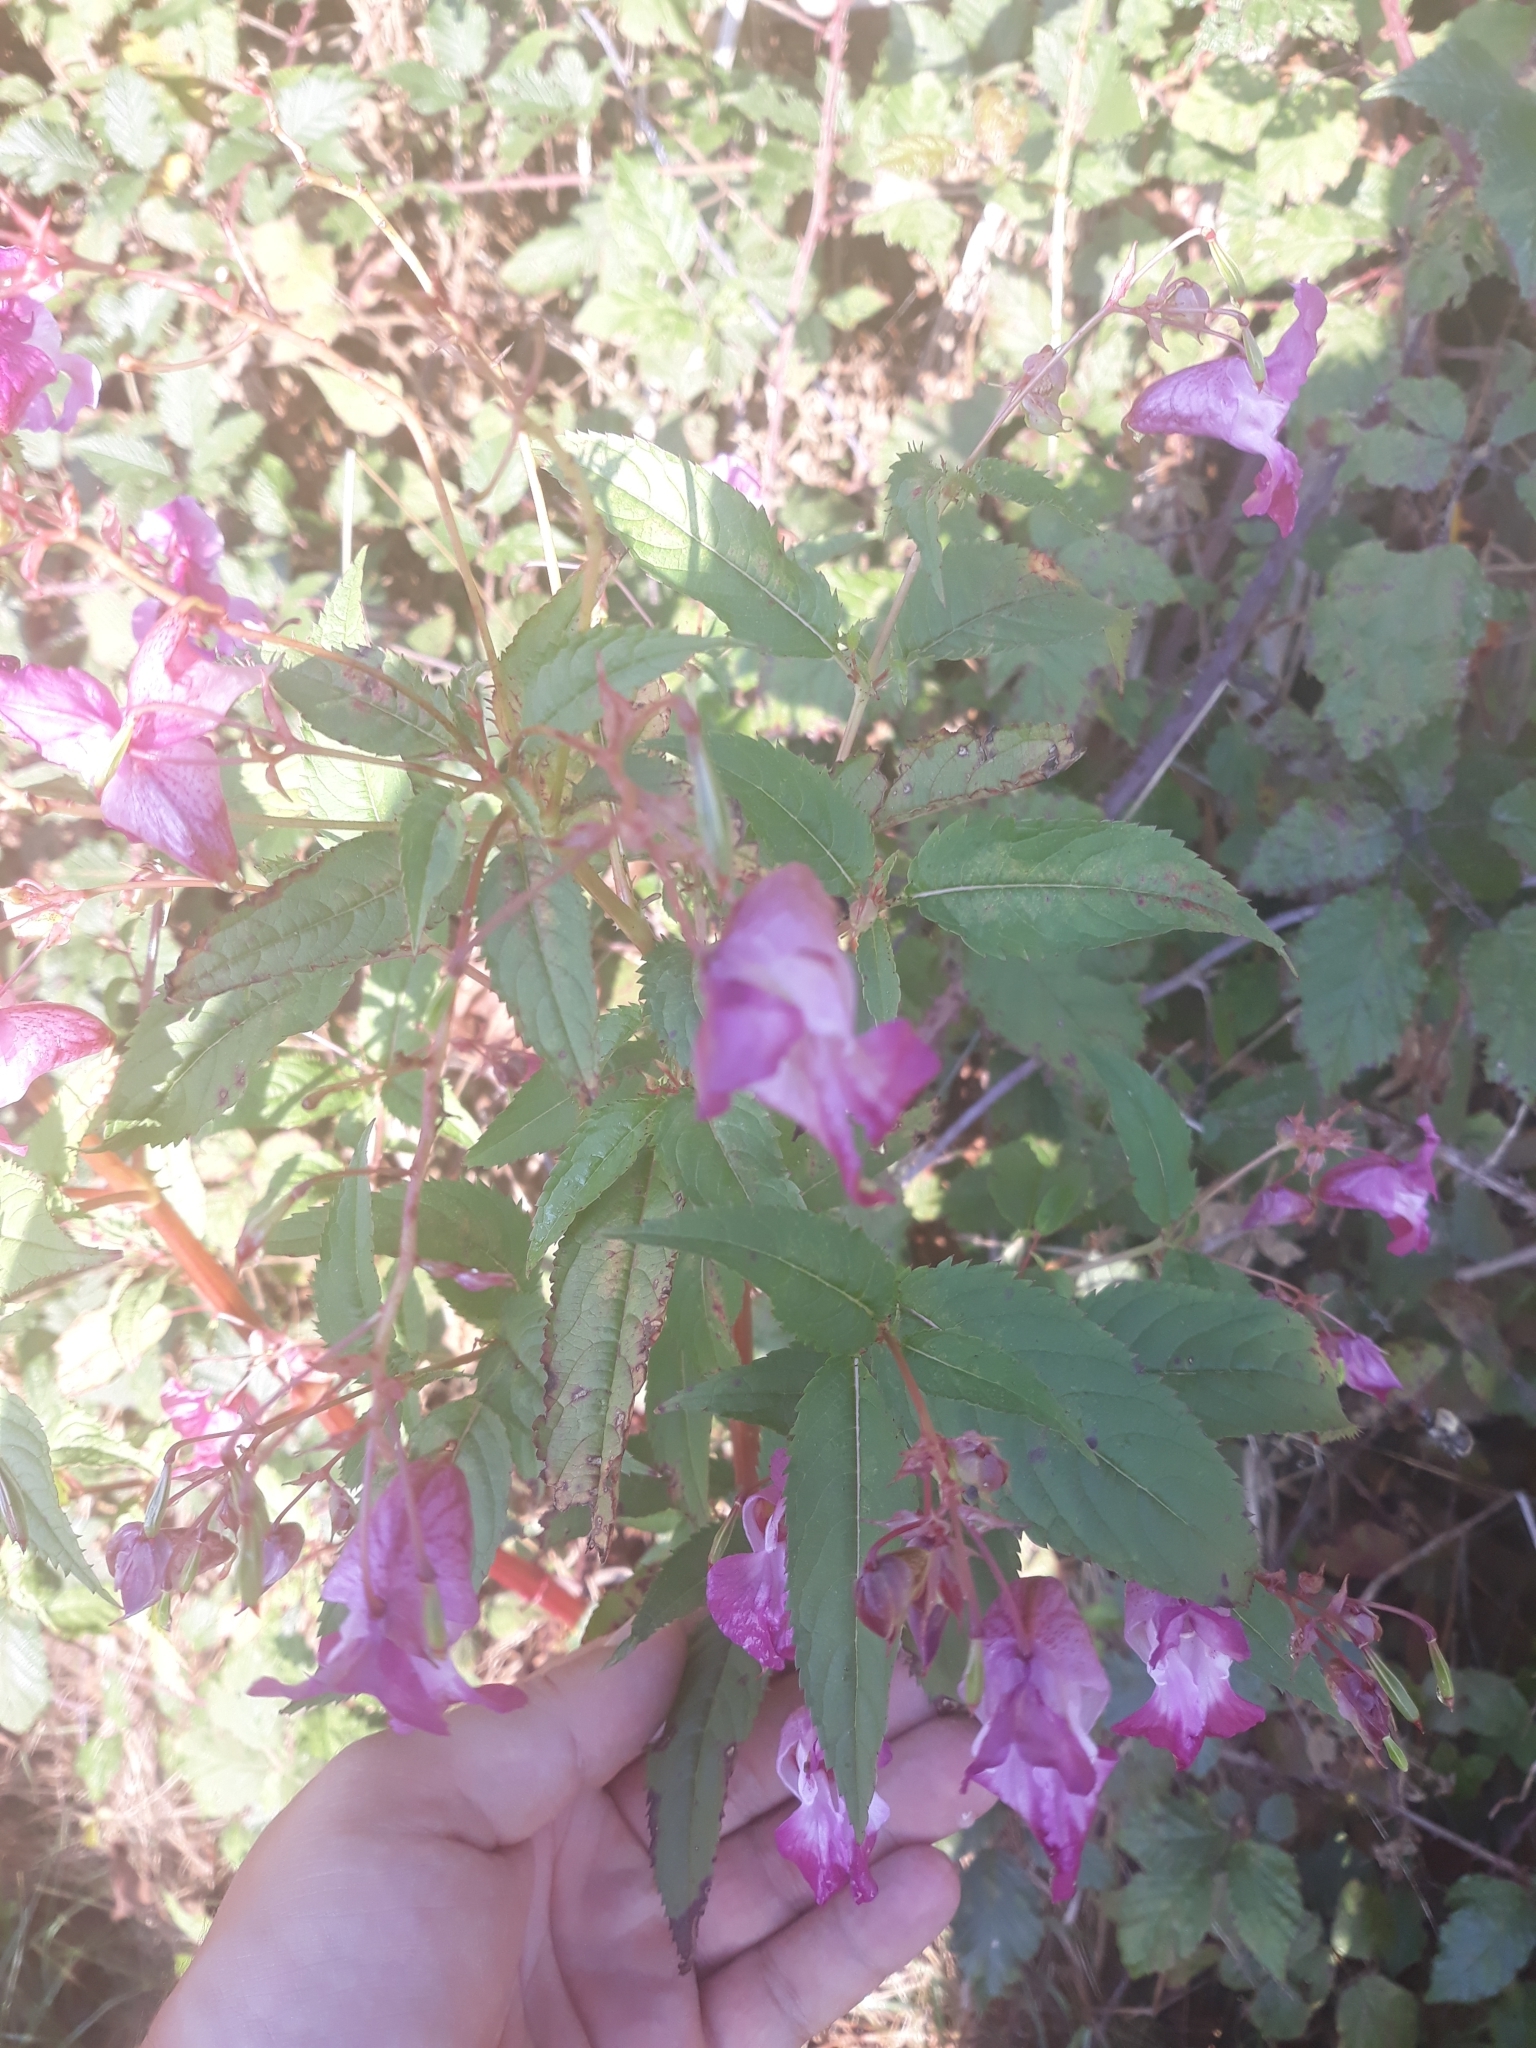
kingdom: Plantae
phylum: Tracheophyta
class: Magnoliopsida
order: Ericales
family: Balsaminaceae
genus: Impatiens
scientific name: Impatiens glandulifera
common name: Himalayan balsam
